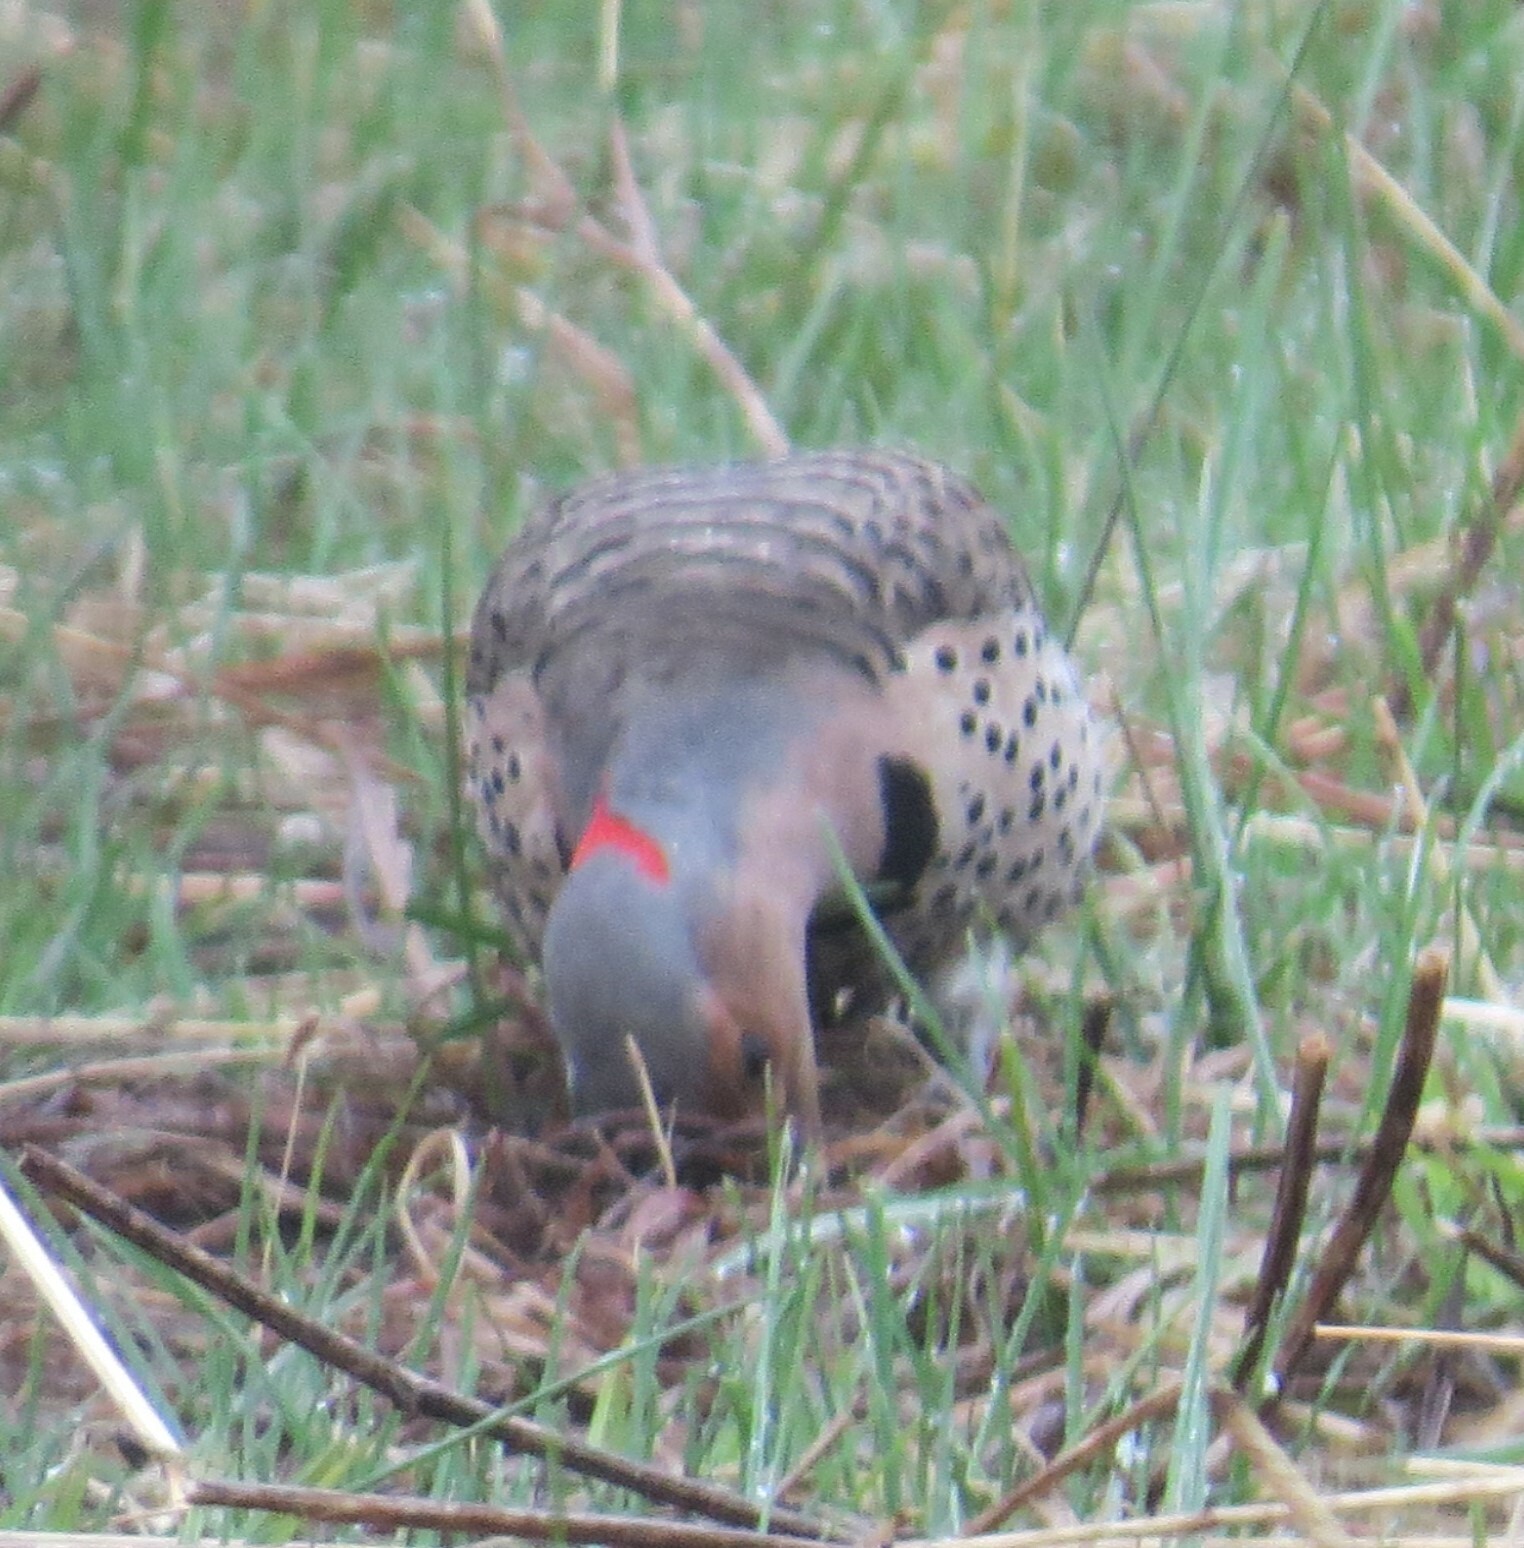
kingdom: Animalia
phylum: Chordata
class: Aves
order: Piciformes
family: Picidae
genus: Colaptes
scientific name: Colaptes auratus
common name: Northern flicker
